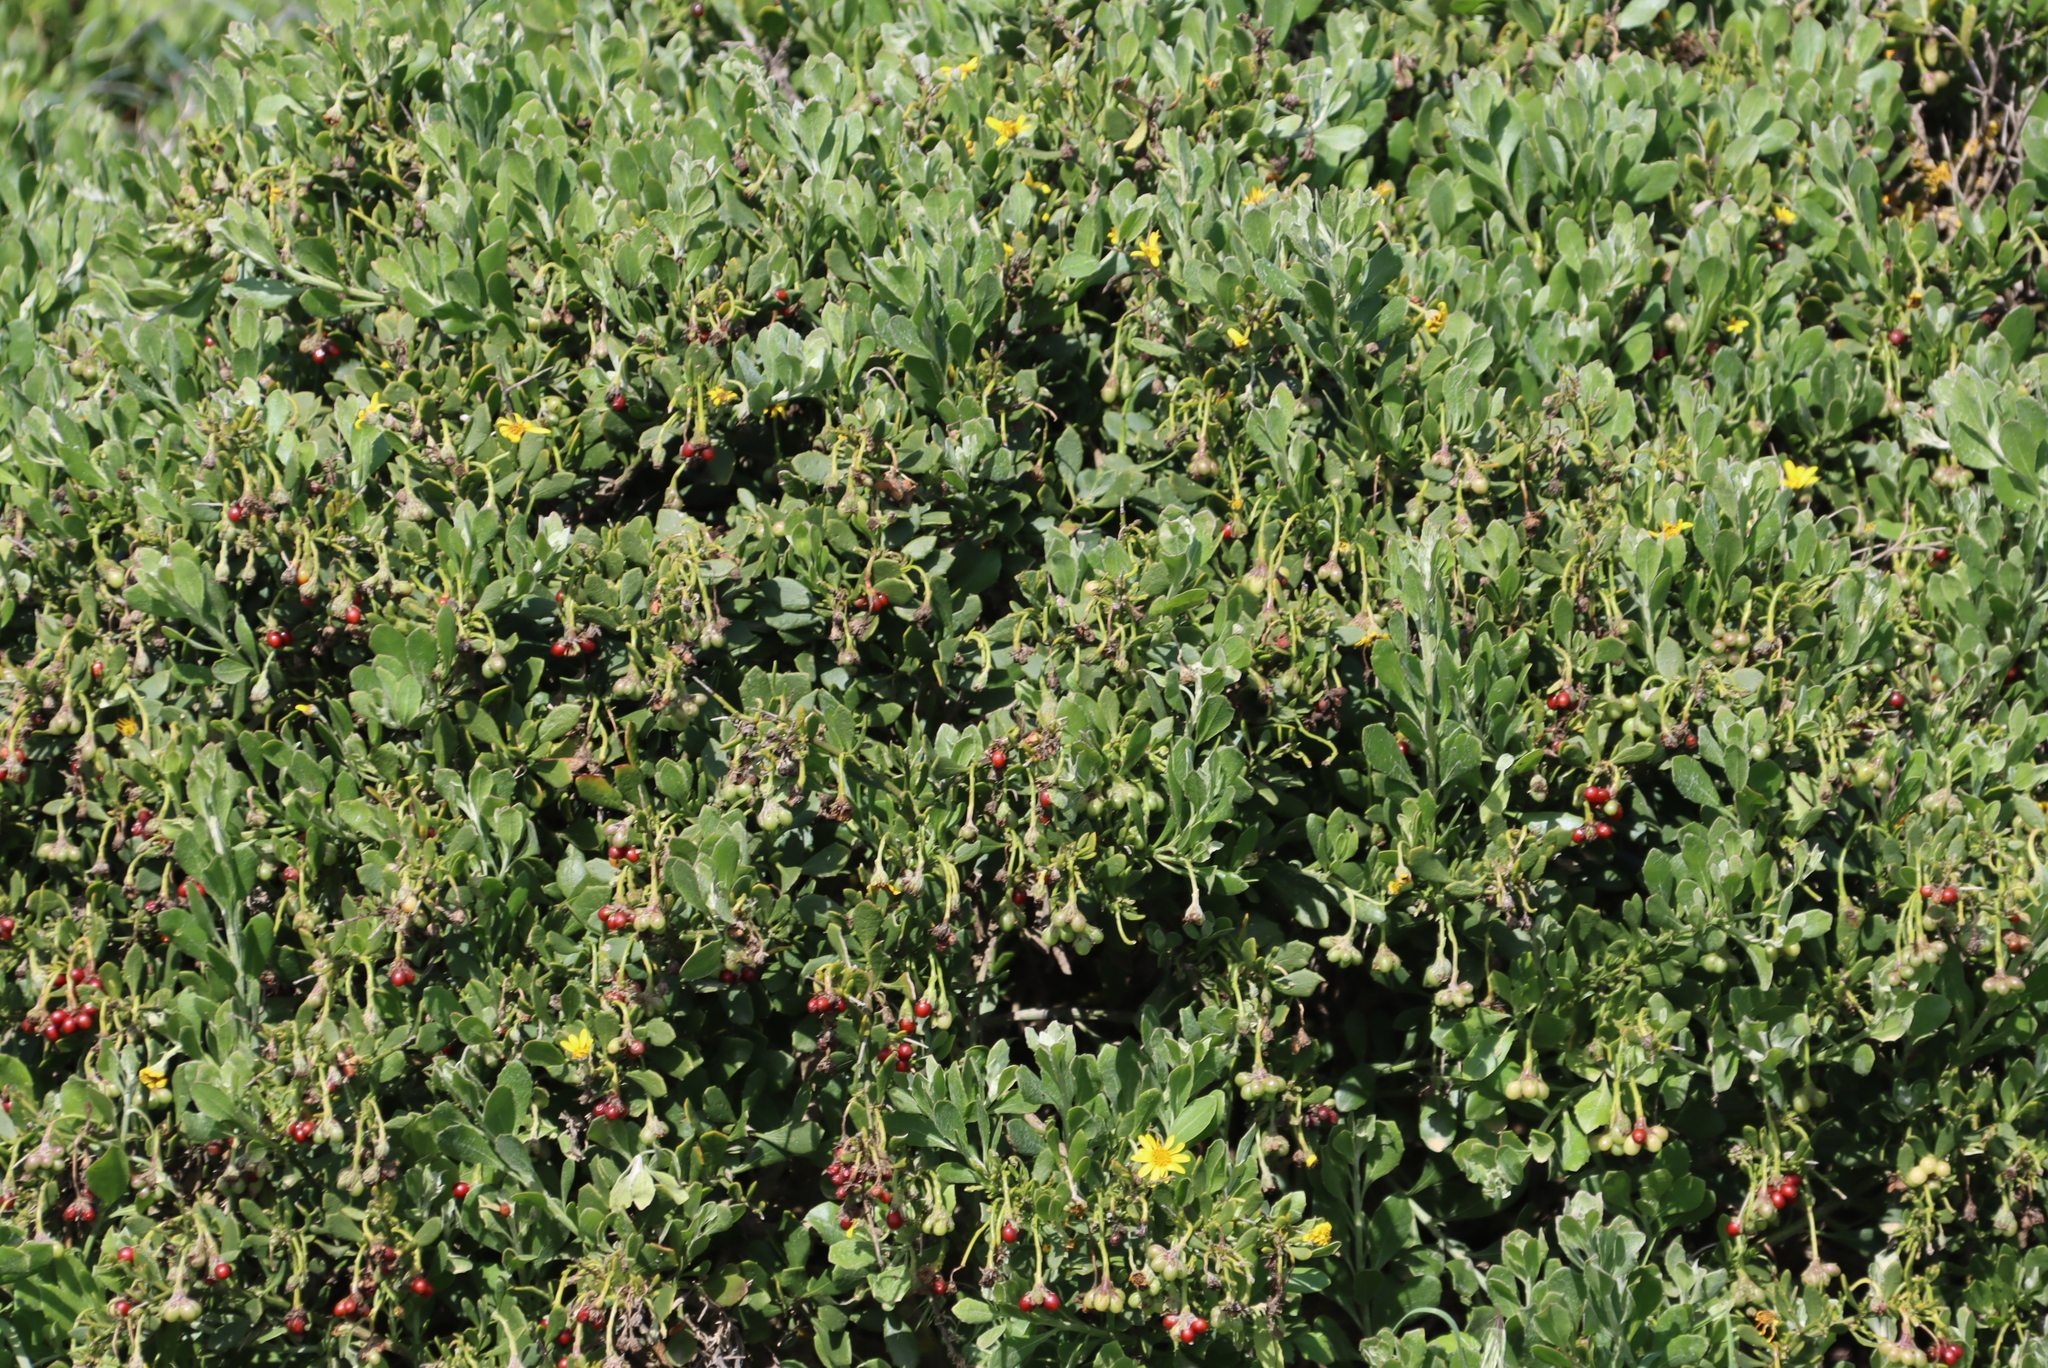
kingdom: Plantae
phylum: Tracheophyta
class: Magnoliopsida
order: Asterales
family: Asteraceae
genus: Osteospermum
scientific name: Osteospermum moniliferum
